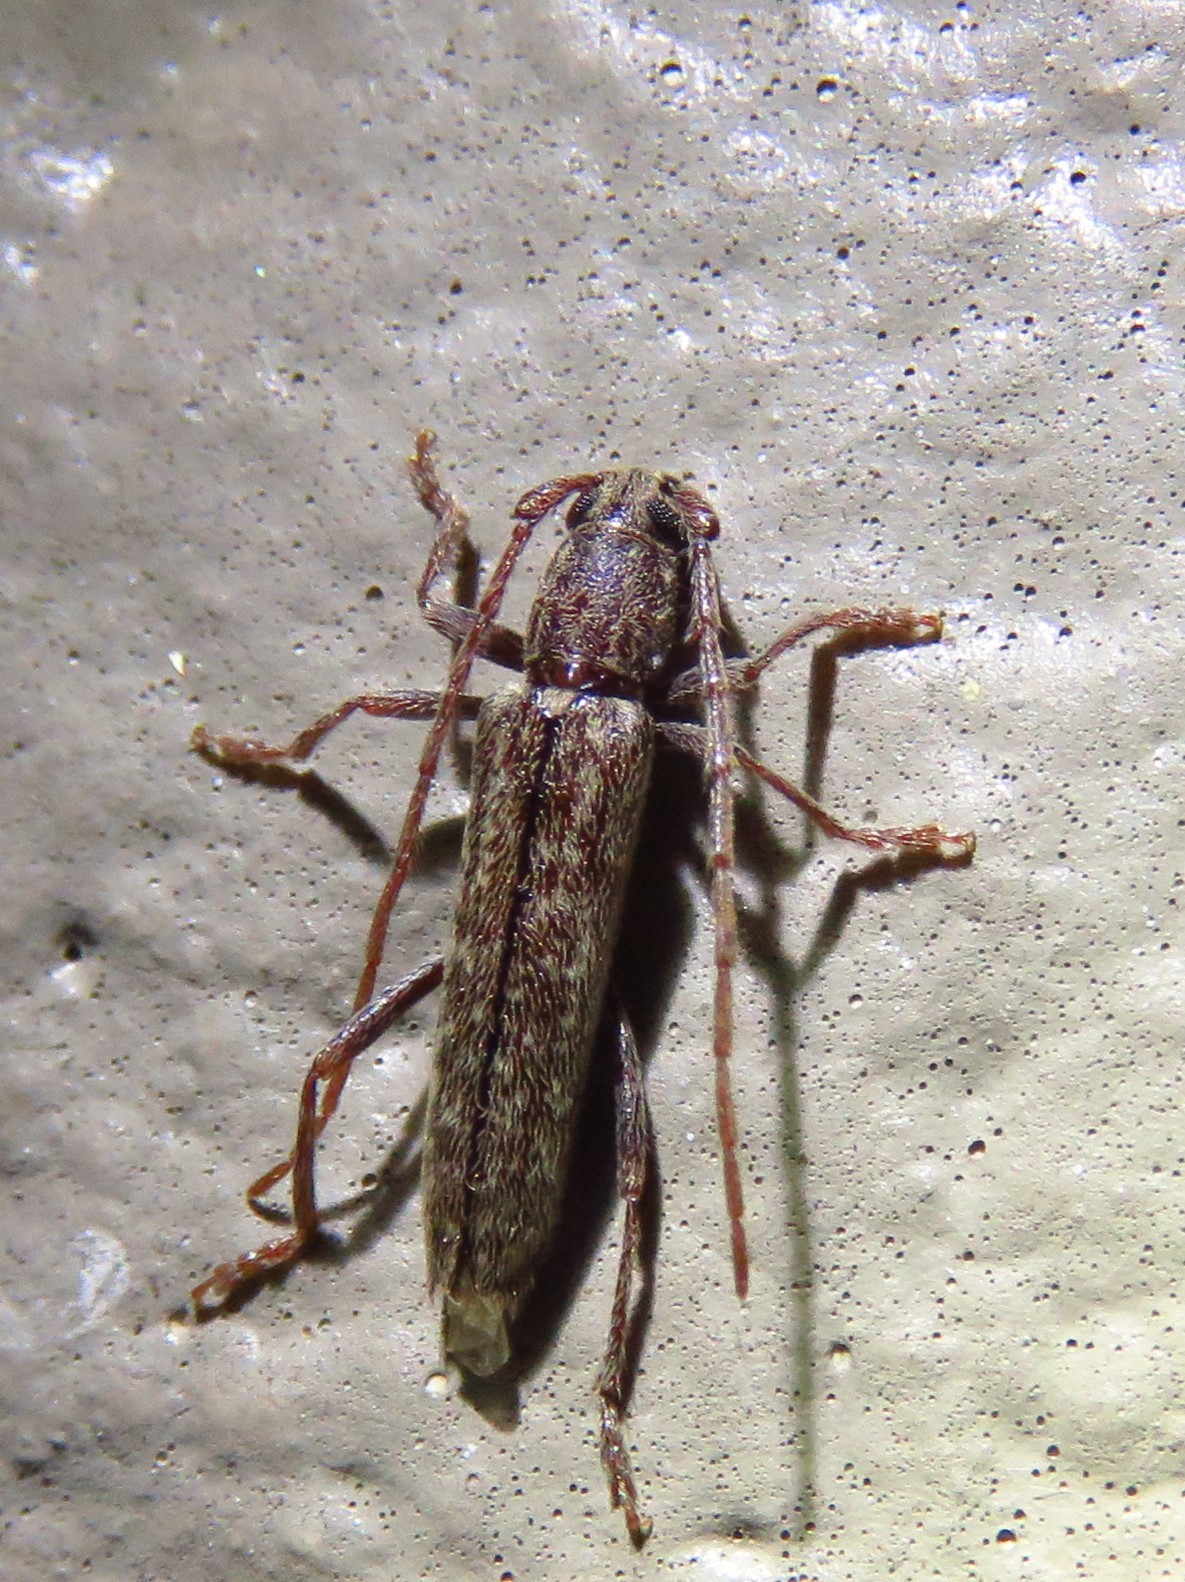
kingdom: Animalia
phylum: Arthropoda
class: Insecta
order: Coleoptera
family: Cerambycidae
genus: Anelaphus
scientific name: Anelaphus villosus
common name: Twig pruner
